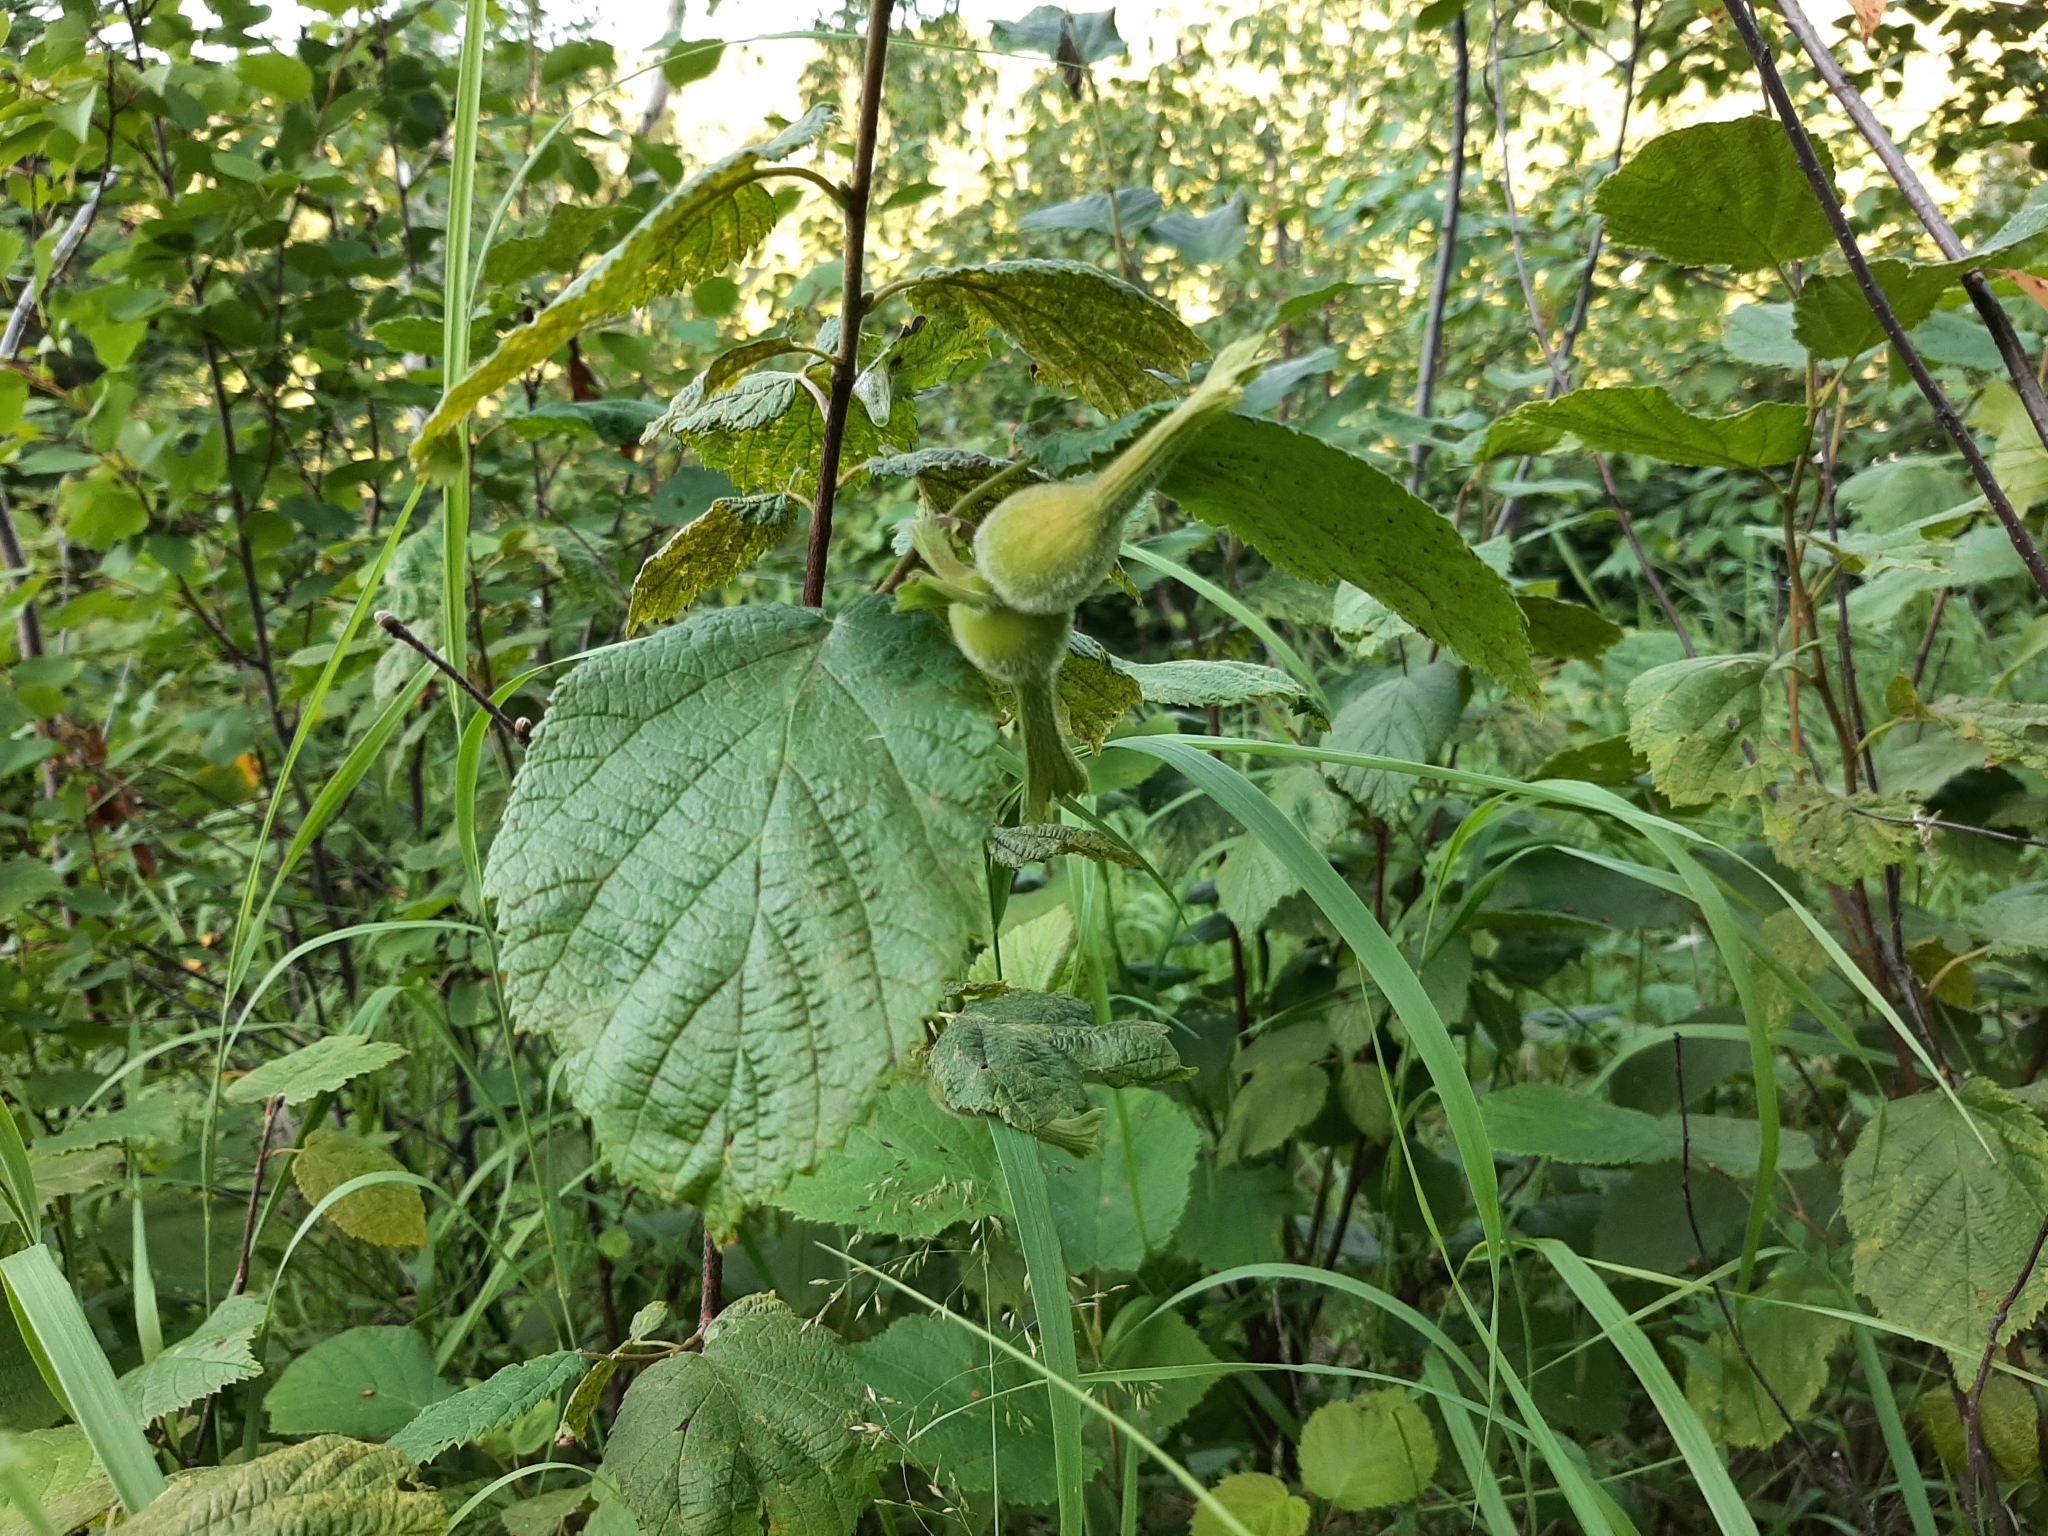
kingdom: Plantae
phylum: Tracheophyta
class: Magnoliopsida
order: Fagales
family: Betulaceae
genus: Corylus
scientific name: Corylus cornuta
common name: Beaked hazel
